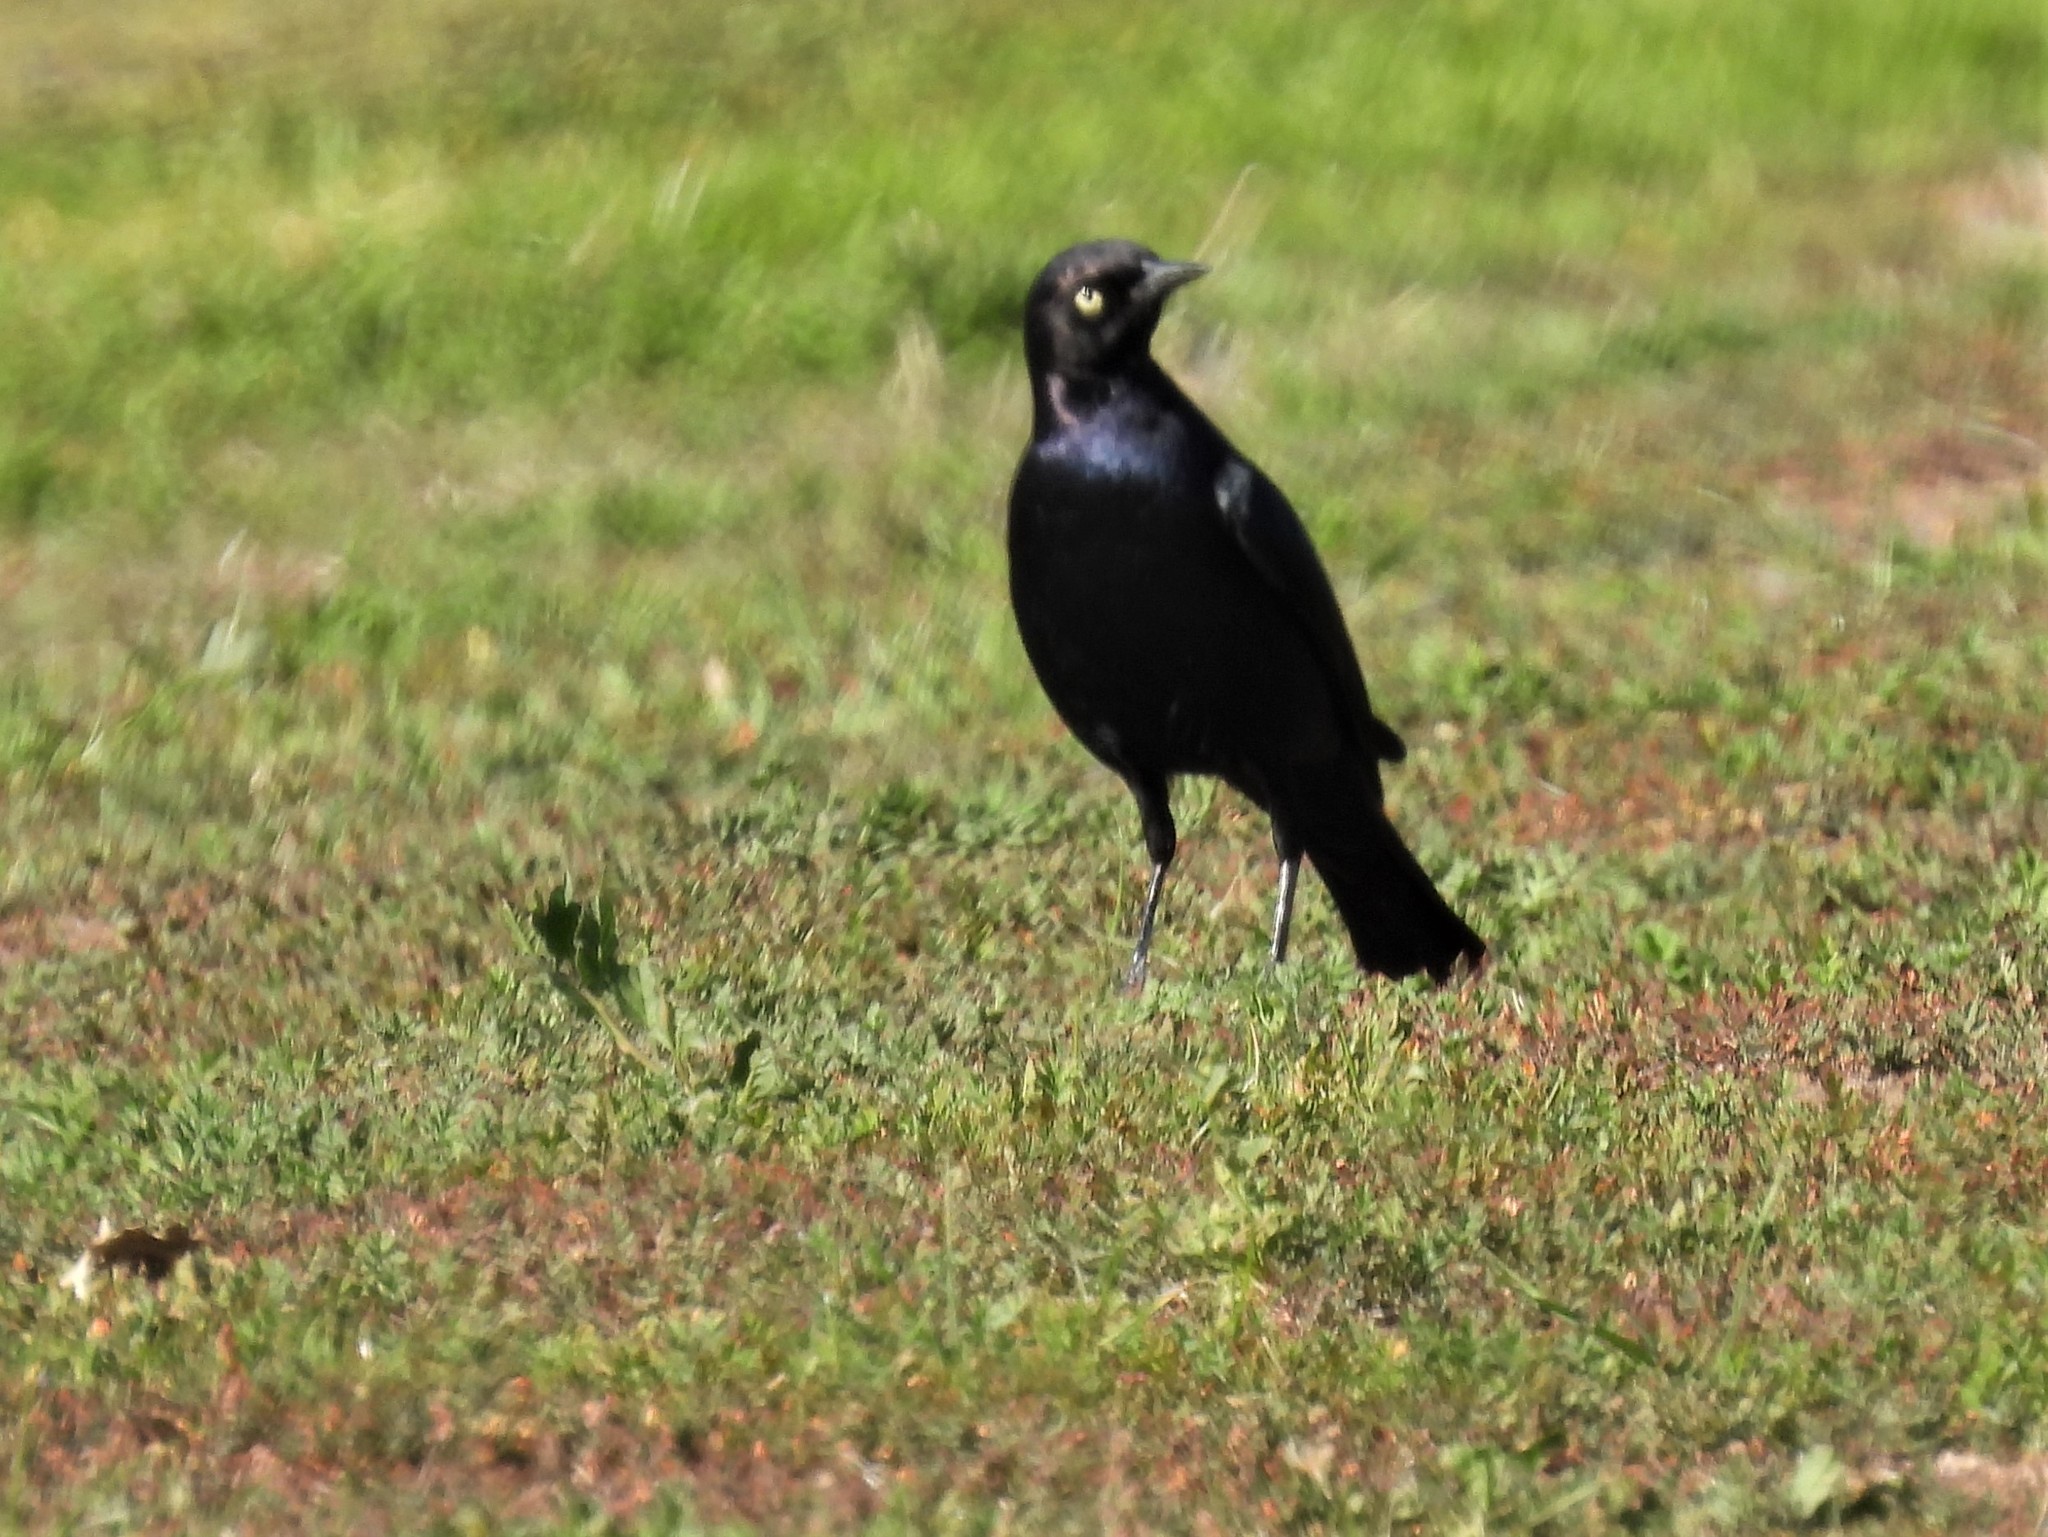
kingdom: Animalia
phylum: Chordata
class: Aves
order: Passeriformes
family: Icteridae
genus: Euphagus
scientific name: Euphagus cyanocephalus
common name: Brewer's blackbird
